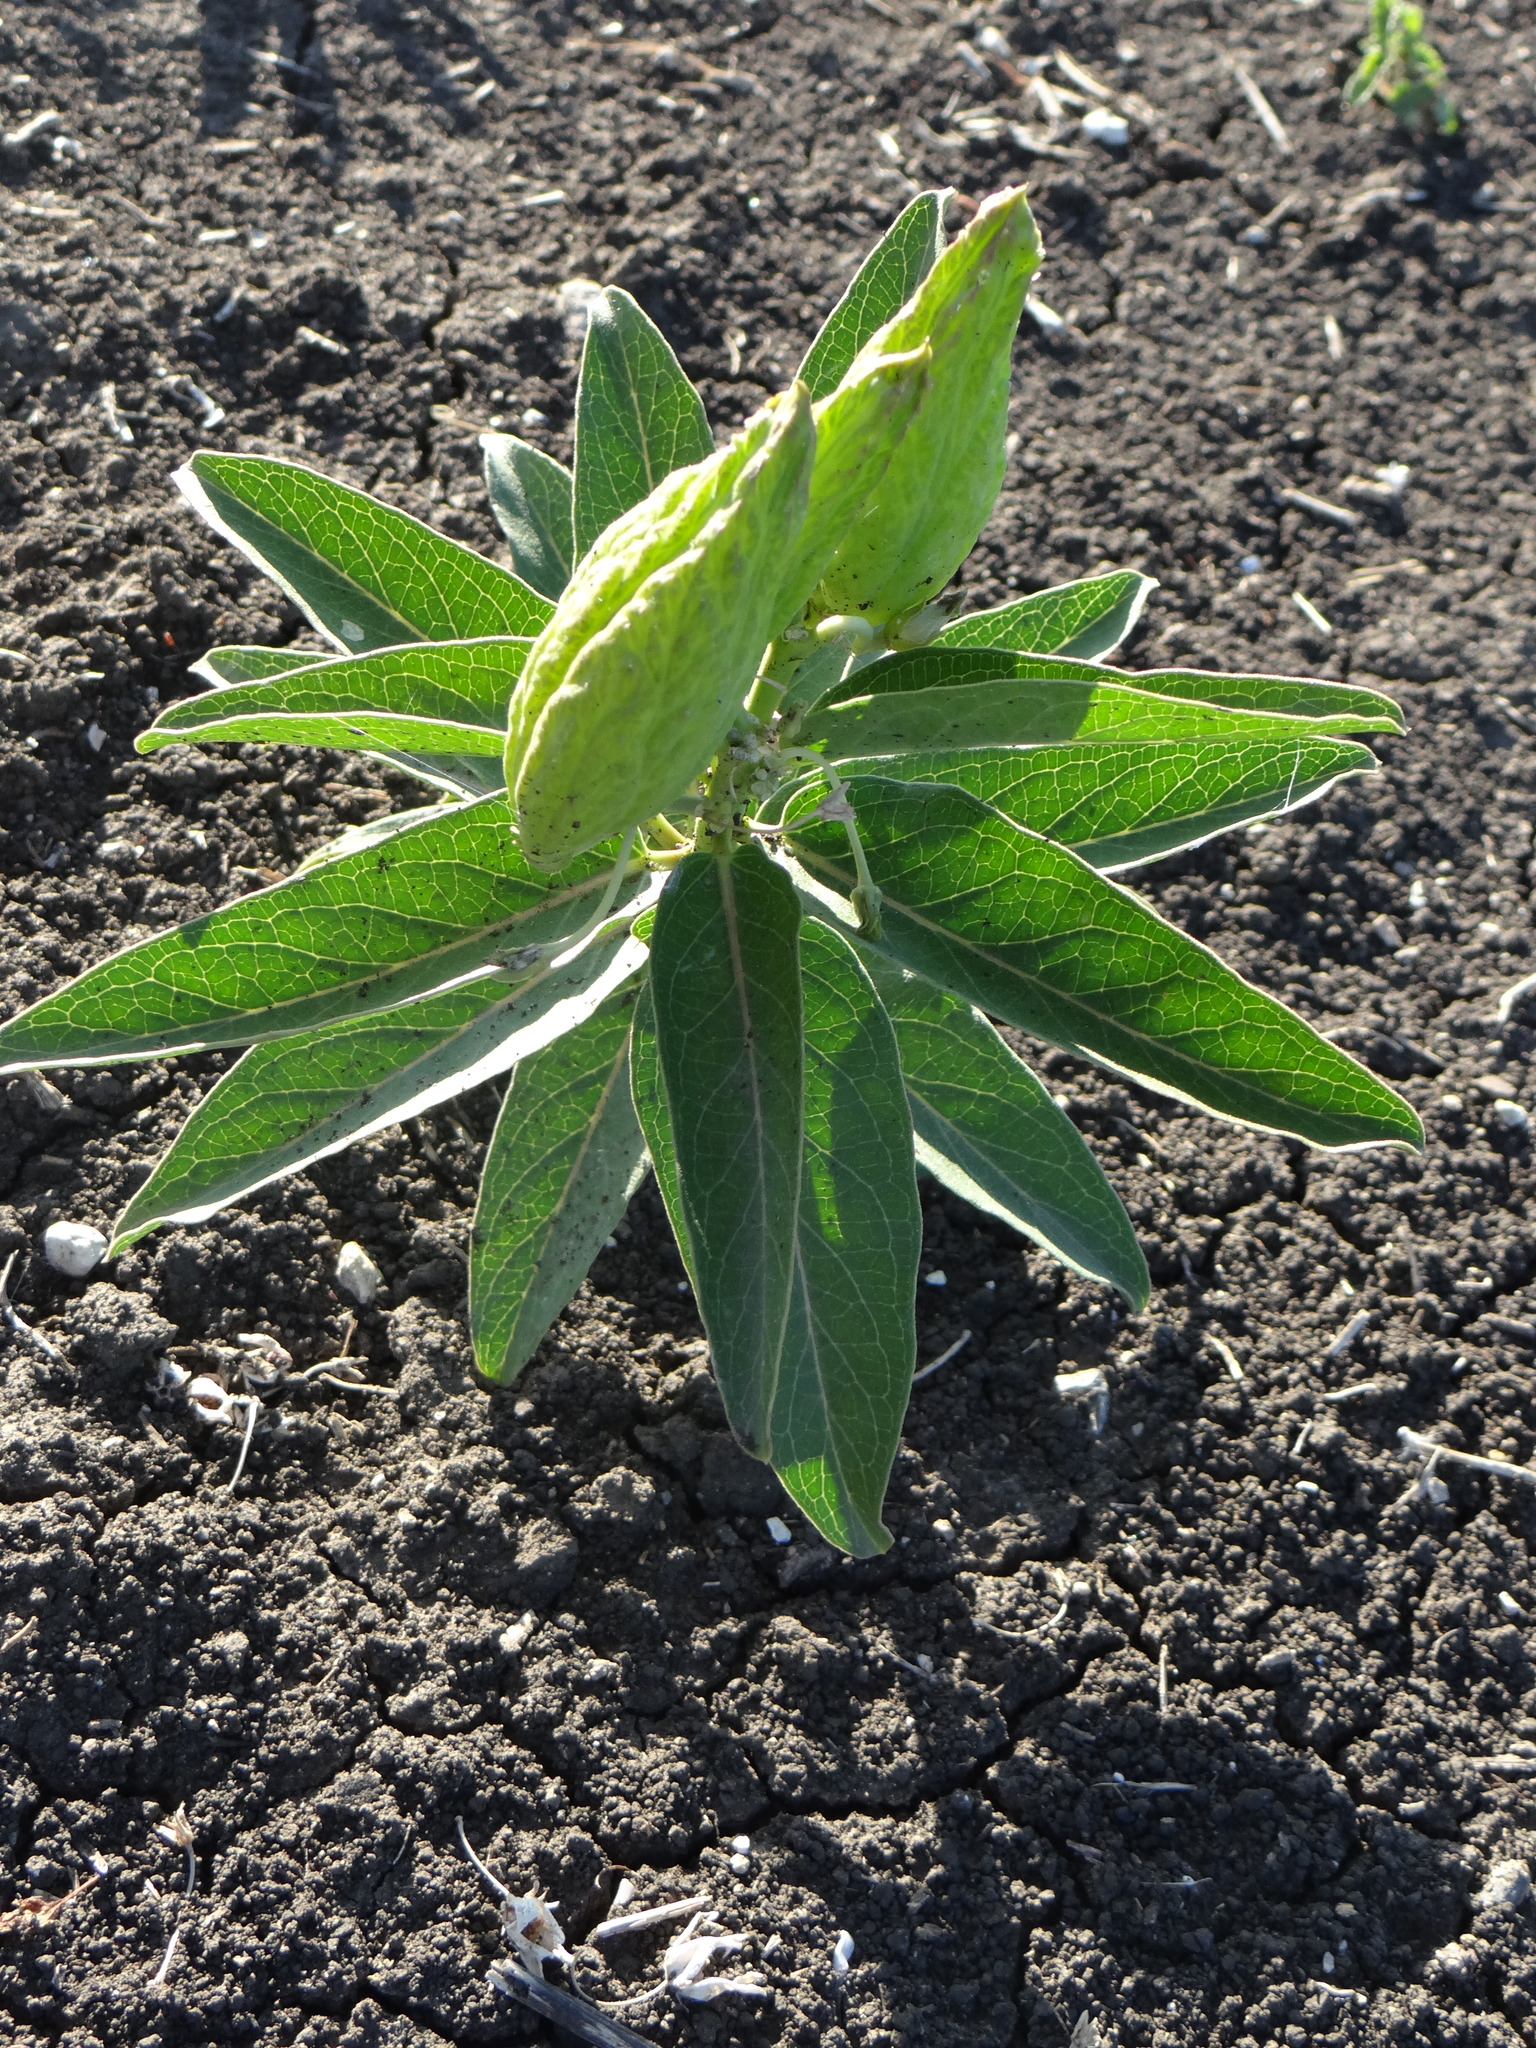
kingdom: Plantae
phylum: Tracheophyta
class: Magnoliopsida
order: Gentianales
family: Apocynaceae
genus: Asclepias
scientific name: Asclepias viridis
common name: Antelope-horns
